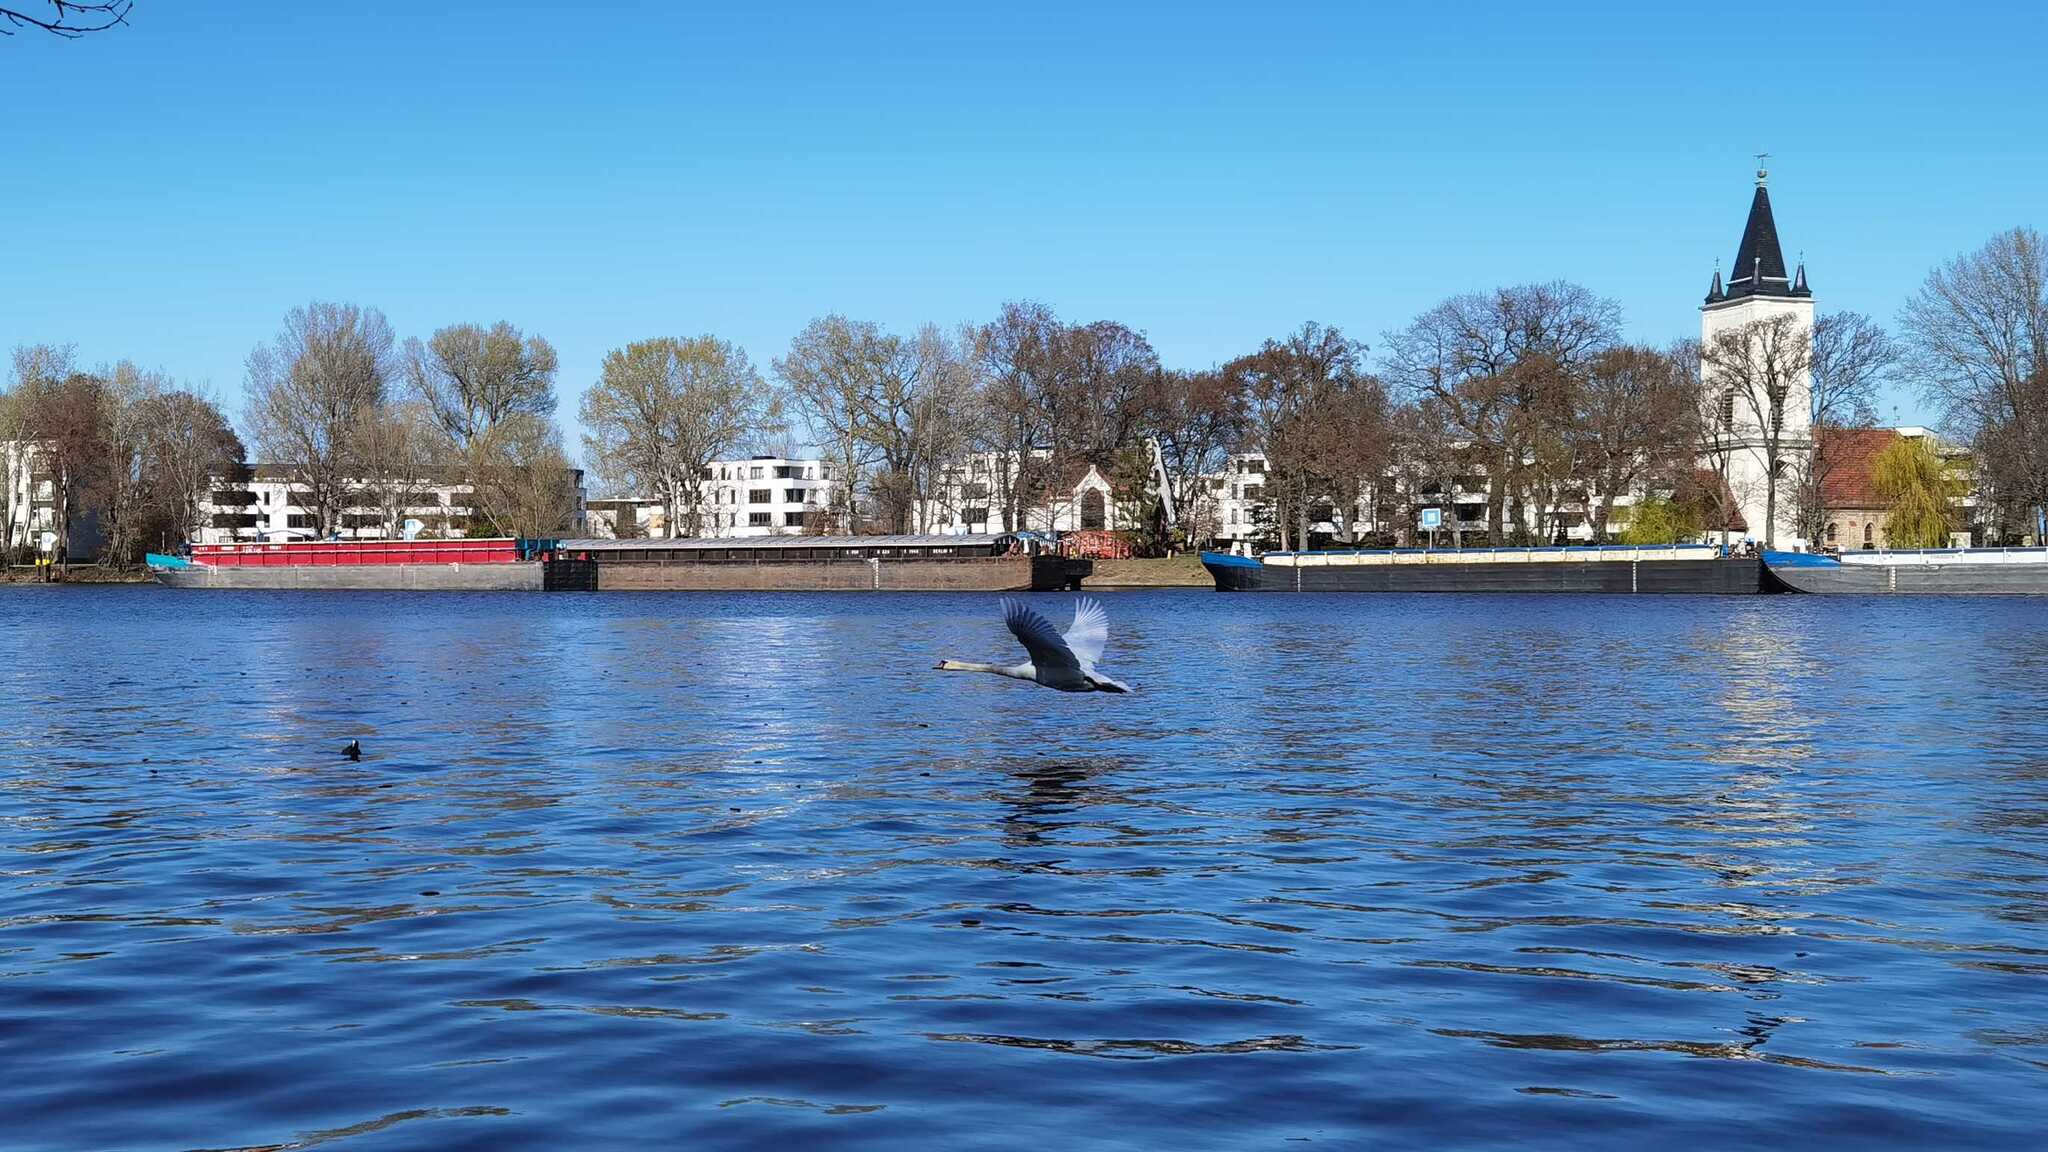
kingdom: Animalia
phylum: Chordata
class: Aves
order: Anseriformes
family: Anatidae
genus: Cygnus
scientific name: Cygnus olor
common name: Mute swan
